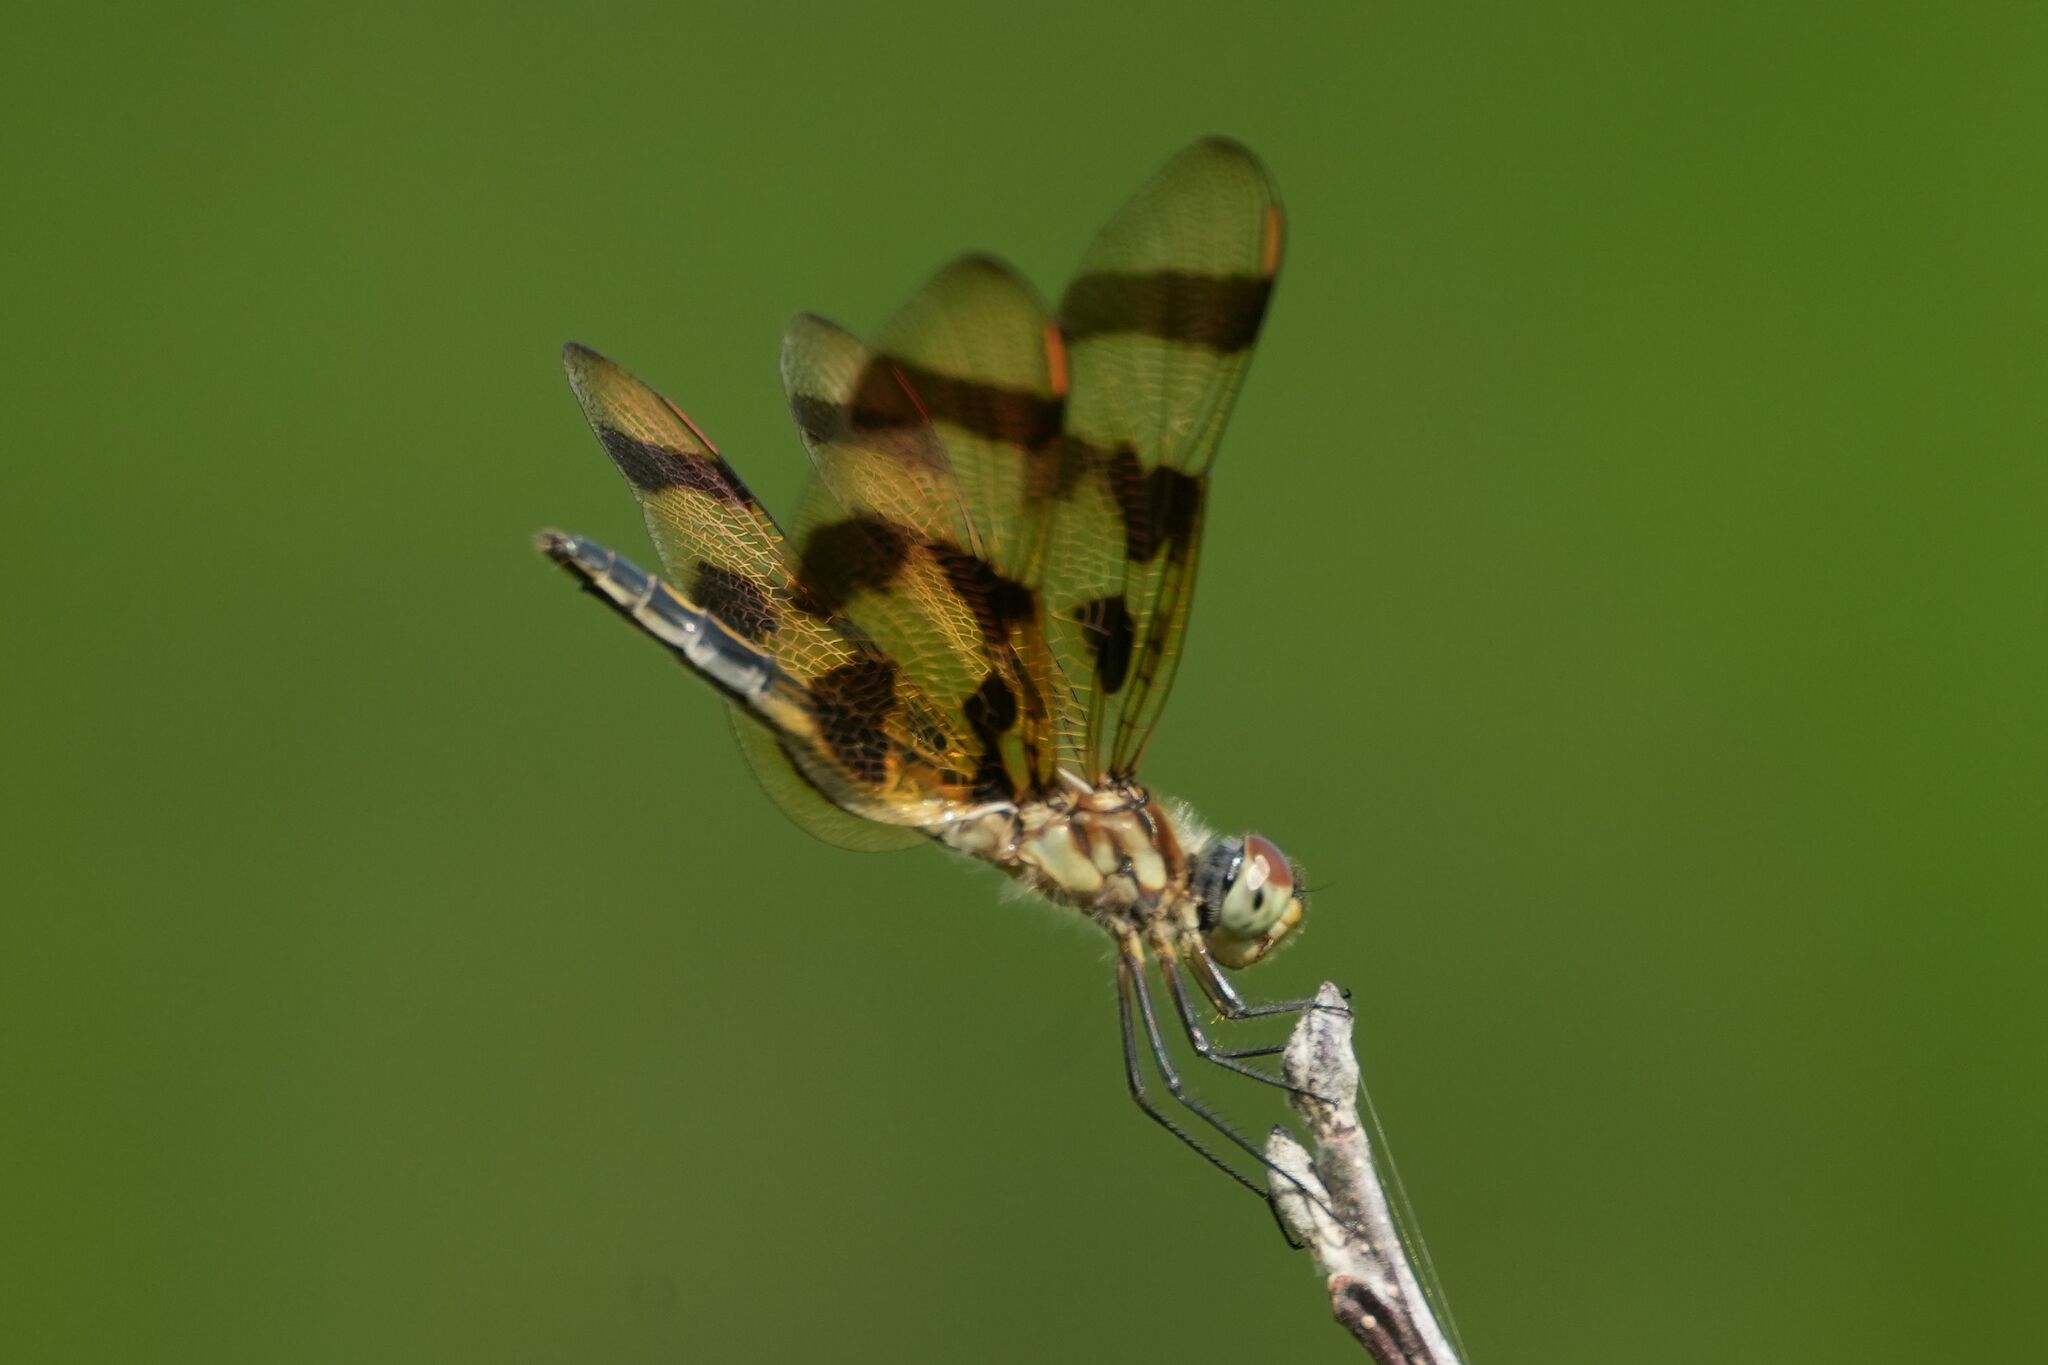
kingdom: Animalia
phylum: Arthropoda
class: Insecta
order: Odonata
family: Libellulidae
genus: Celithemis
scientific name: Celithemis eponina
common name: Halloween pennant
